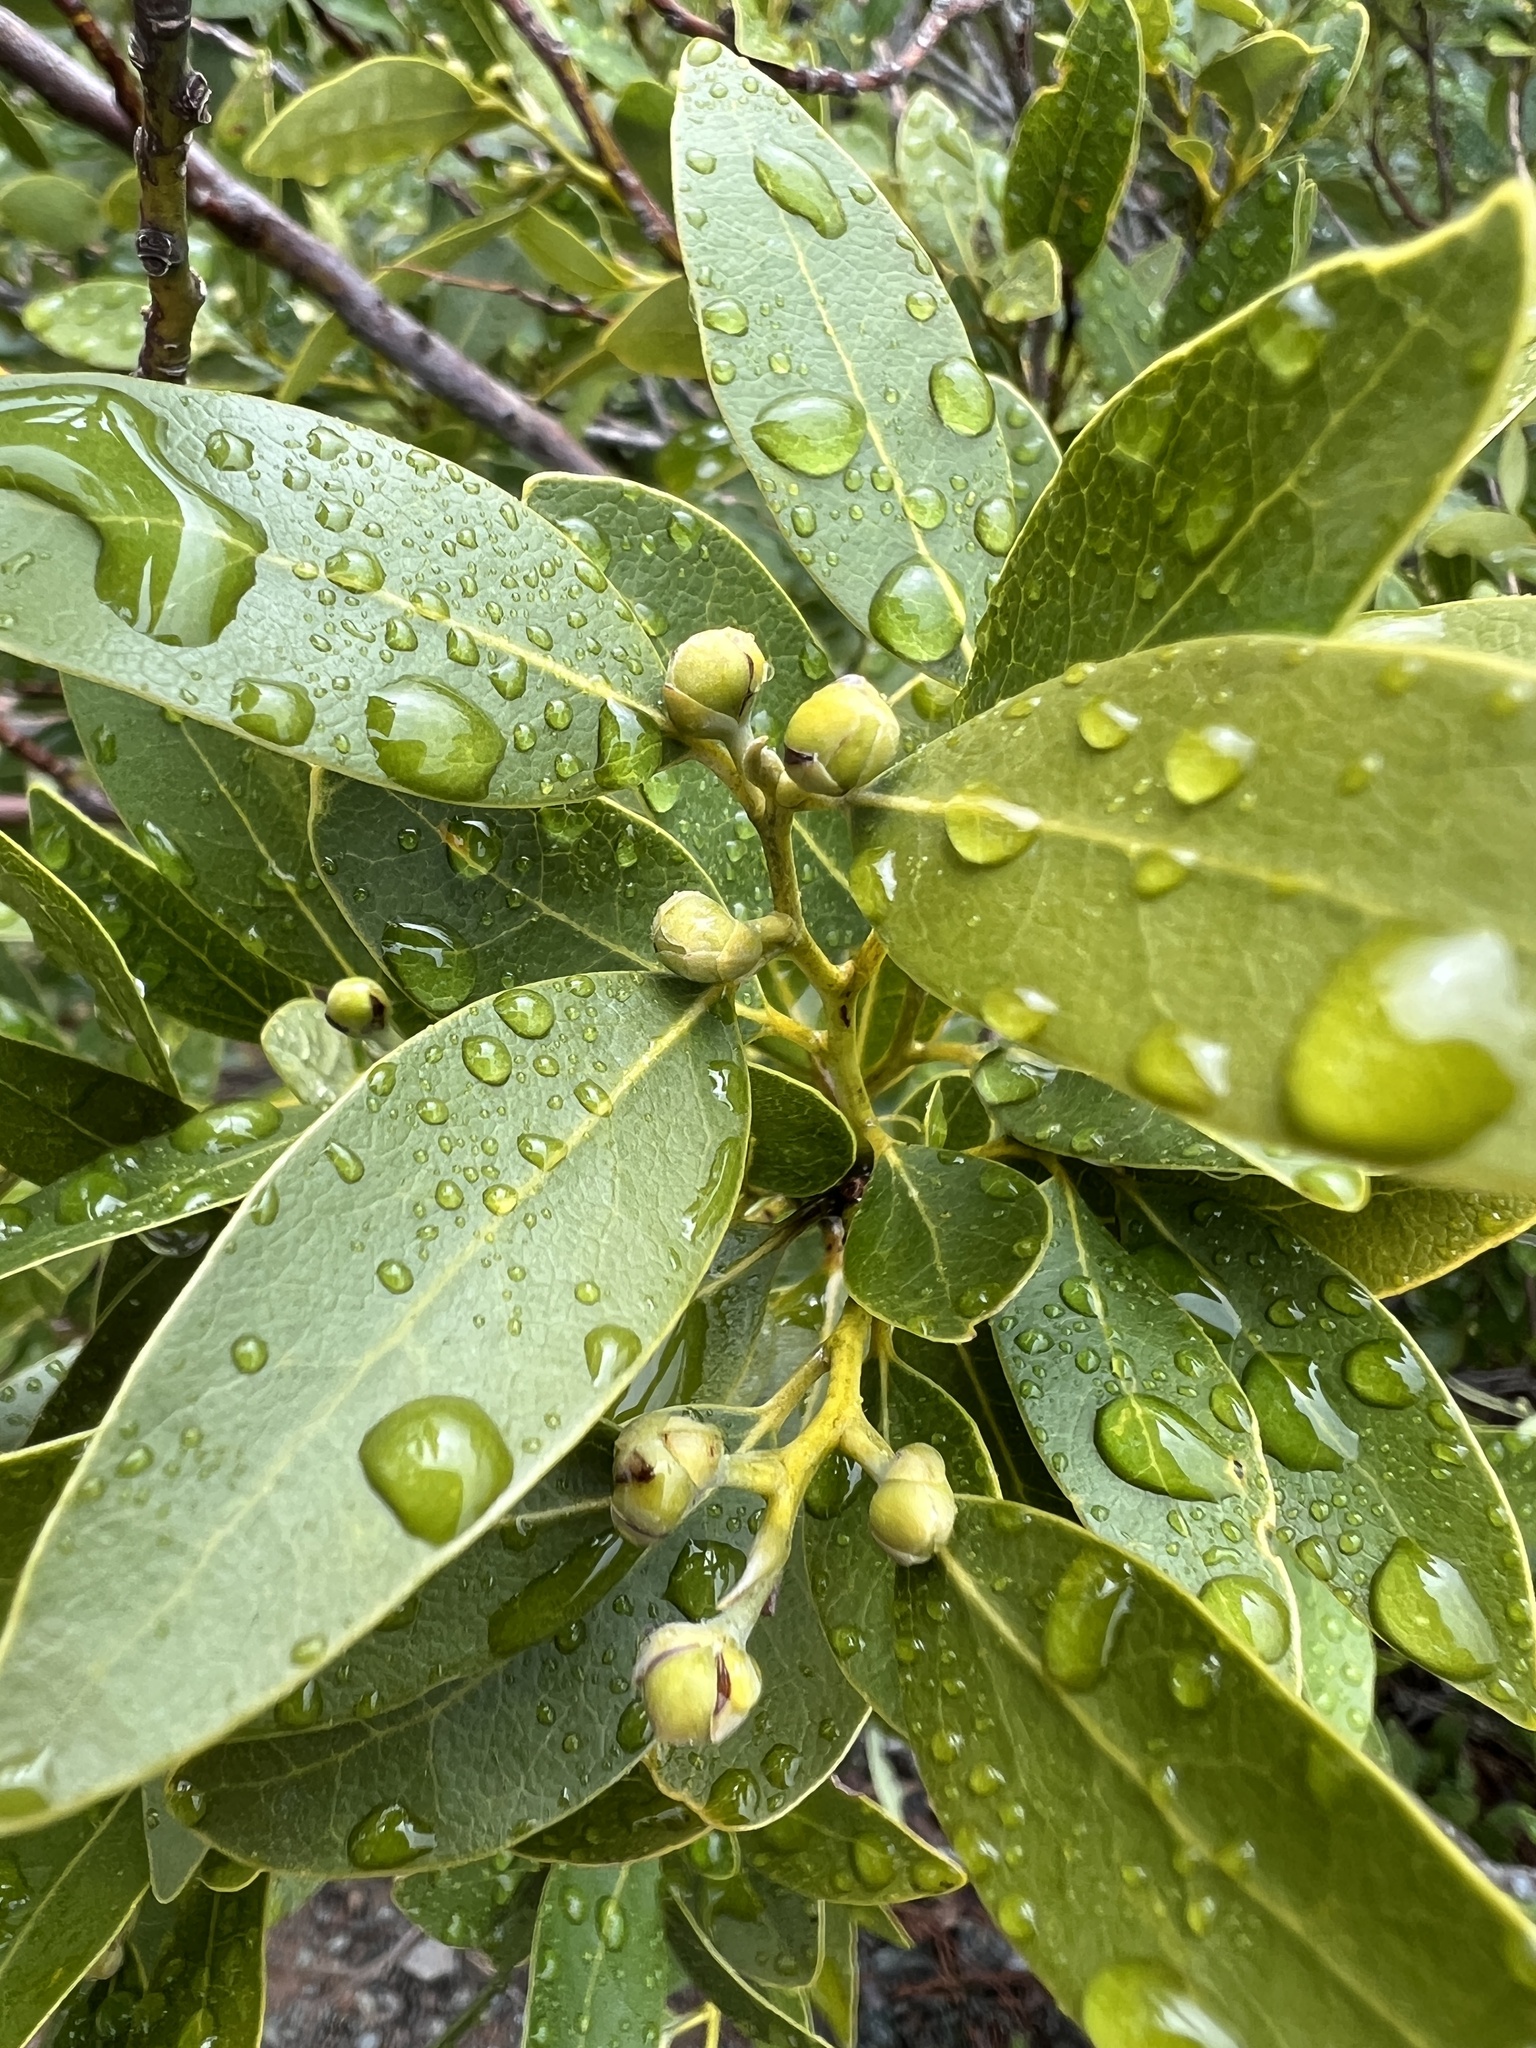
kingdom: Plantae
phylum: Tracheophyta
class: Magnoliopsida
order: Laurales
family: Lauraceae
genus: Umbellularia
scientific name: Umbellularia californica
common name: California bay
